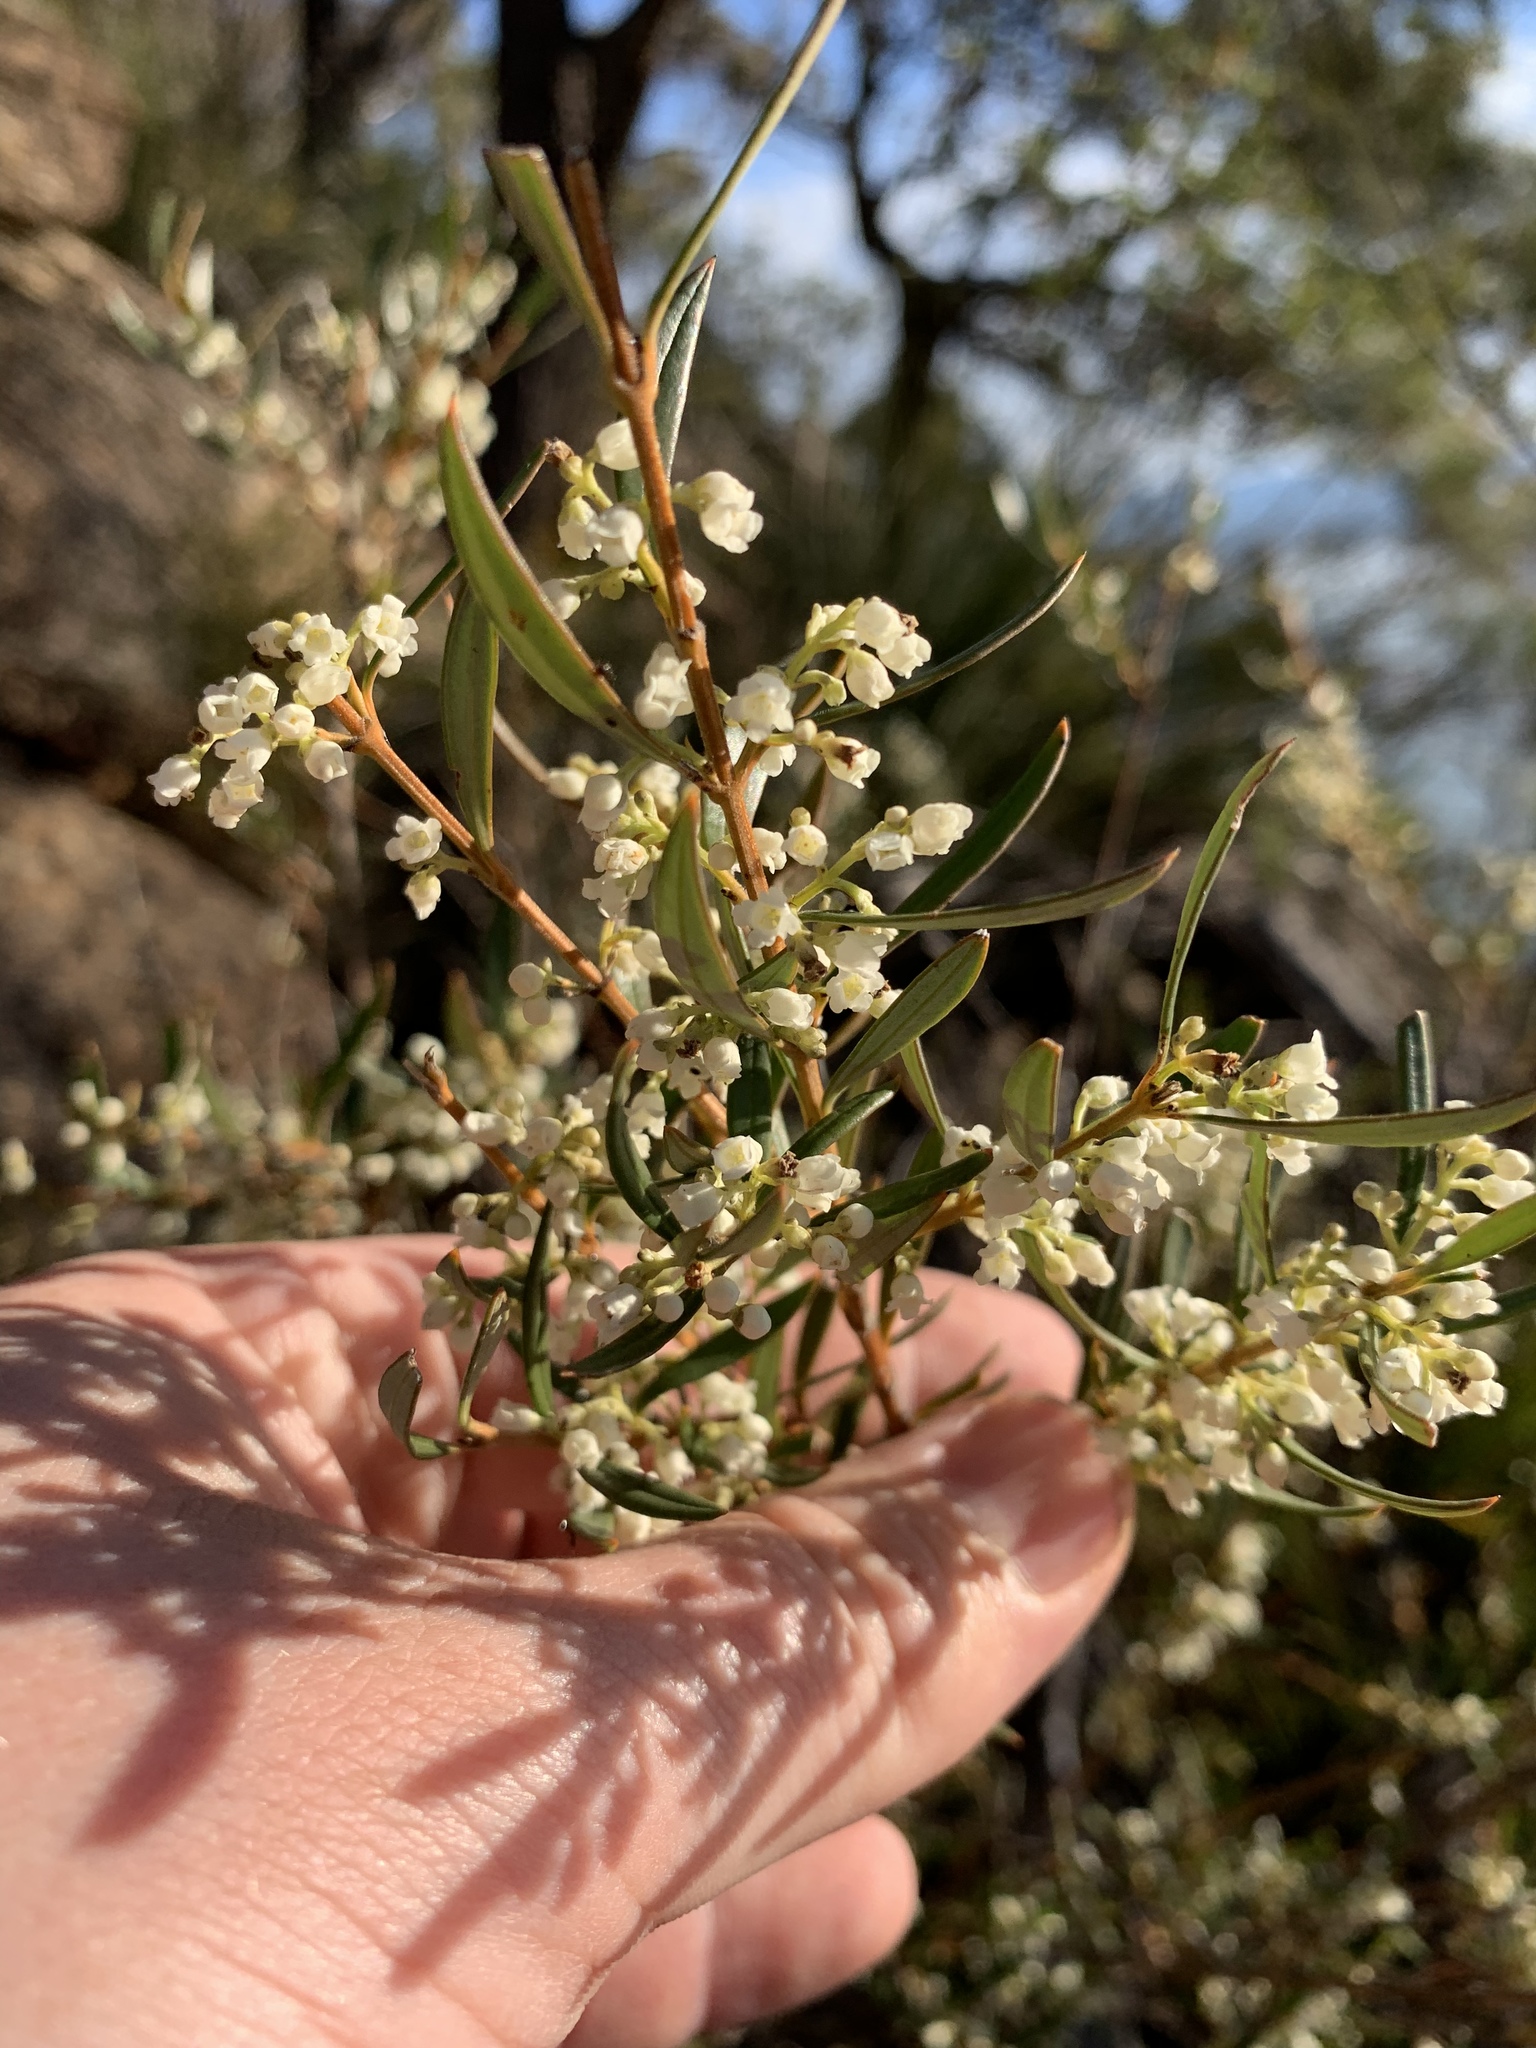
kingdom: Plantae
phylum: Tracheophyta
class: Magnoliopsida
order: Gentianales
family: Loganiaceae
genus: Logania
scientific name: Logania albiflora
